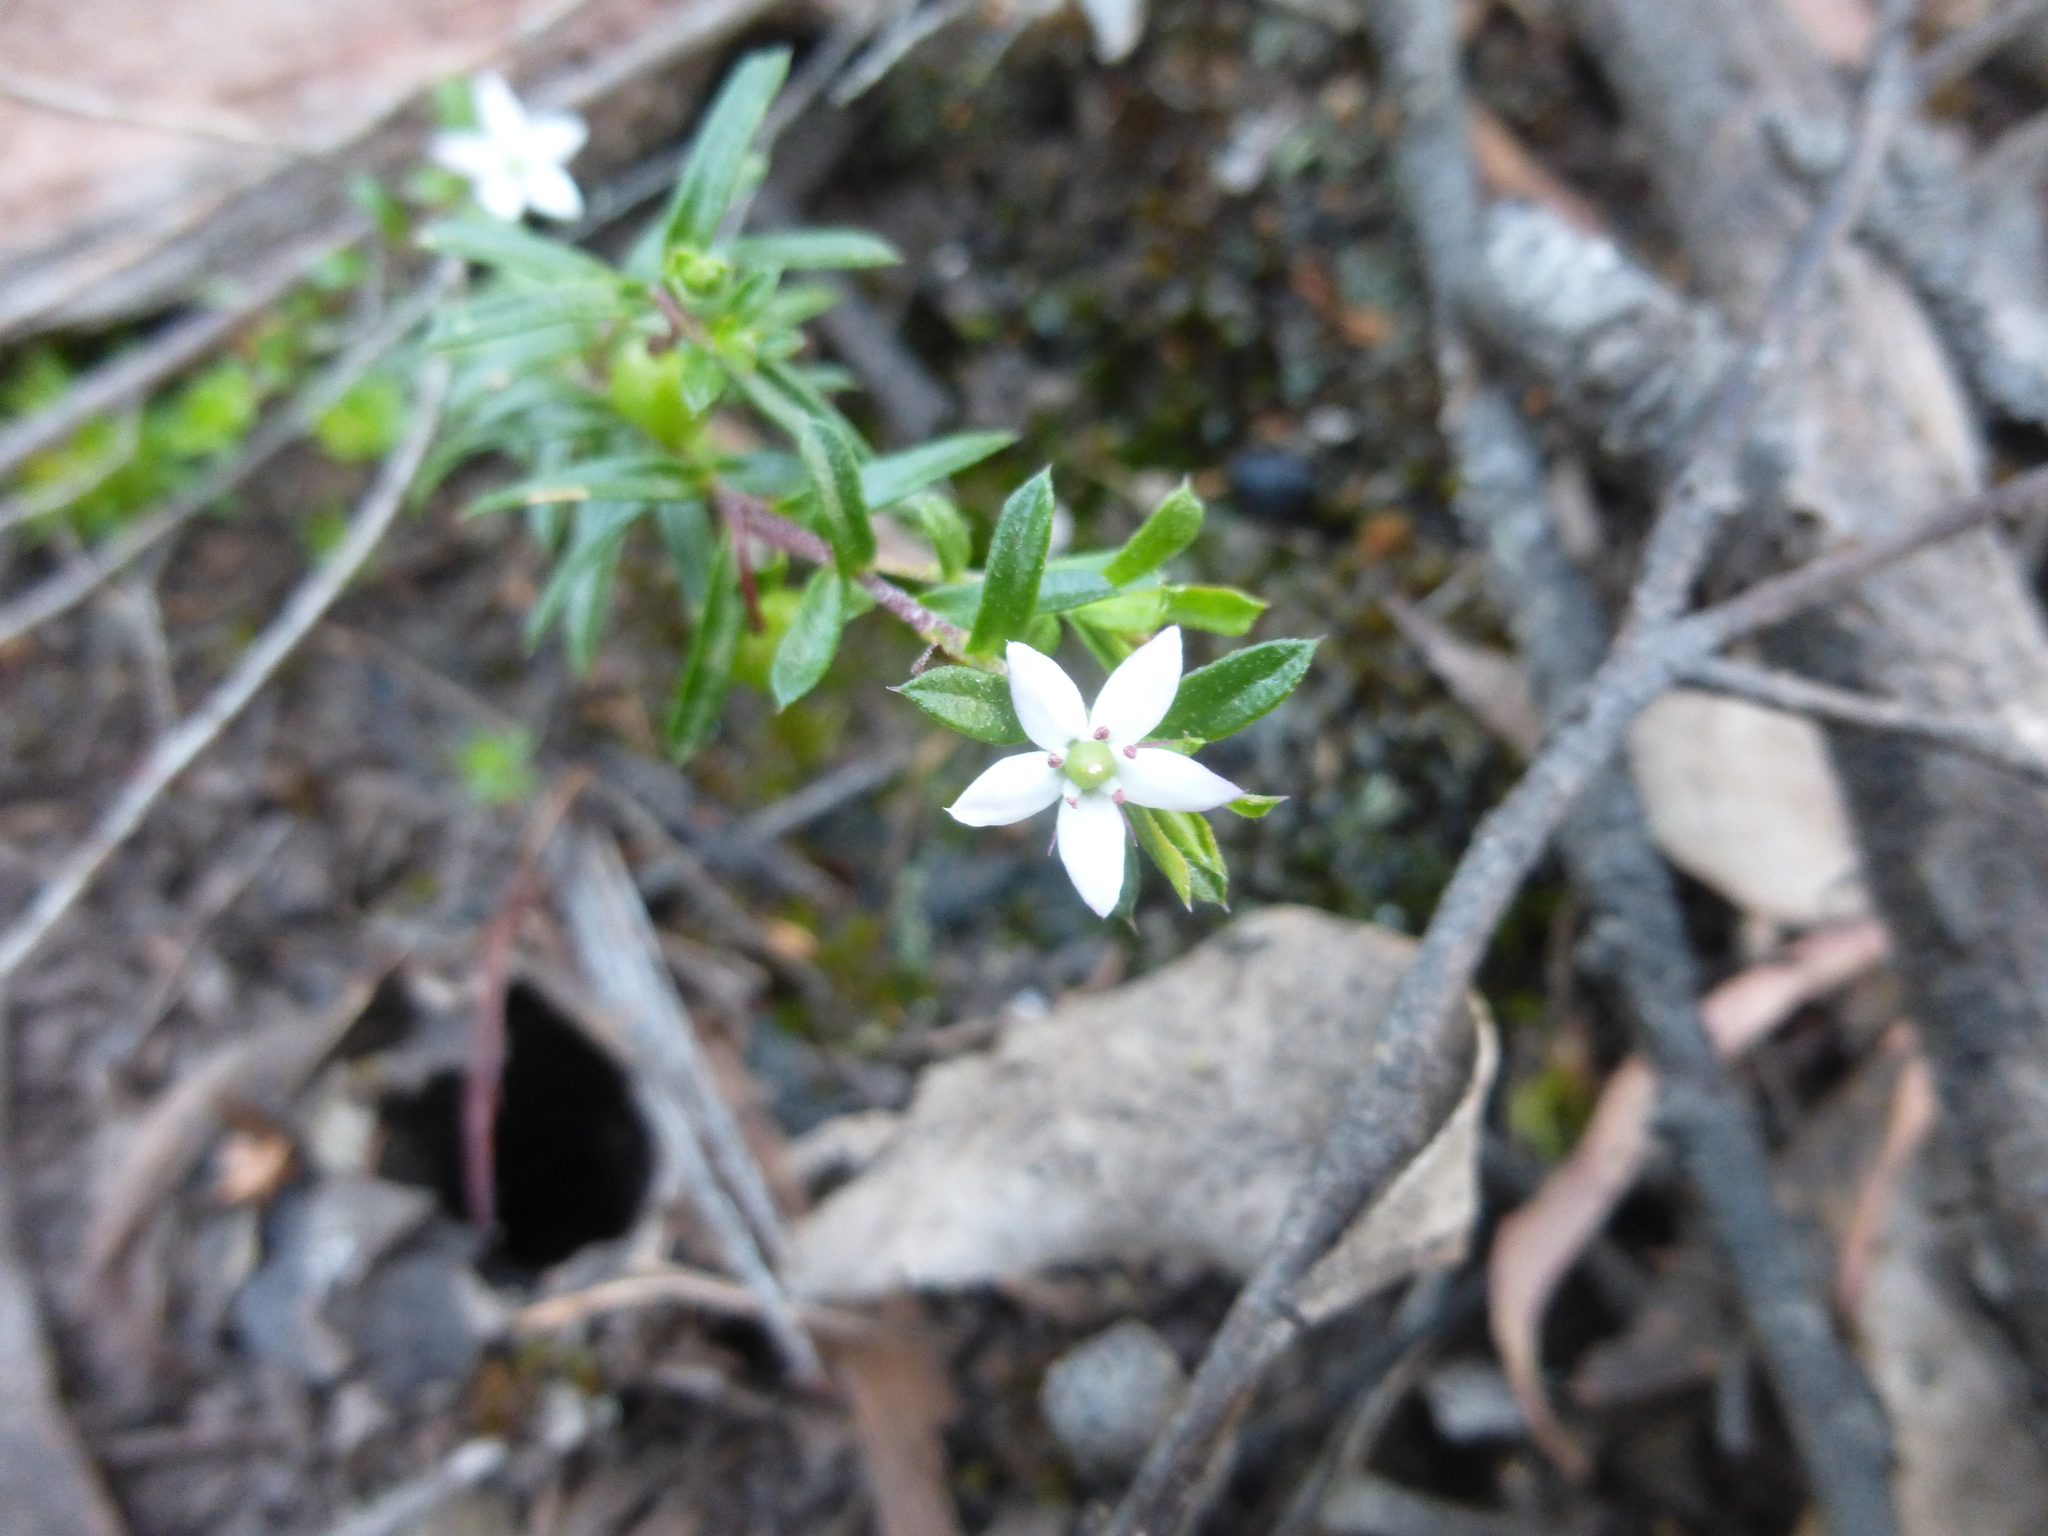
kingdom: Plantae
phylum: Tracheophyta
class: Magnoliopsida
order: Apiales
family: Pittosporaceae
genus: Rhytidosporum
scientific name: Rhytidosporum procumbens
